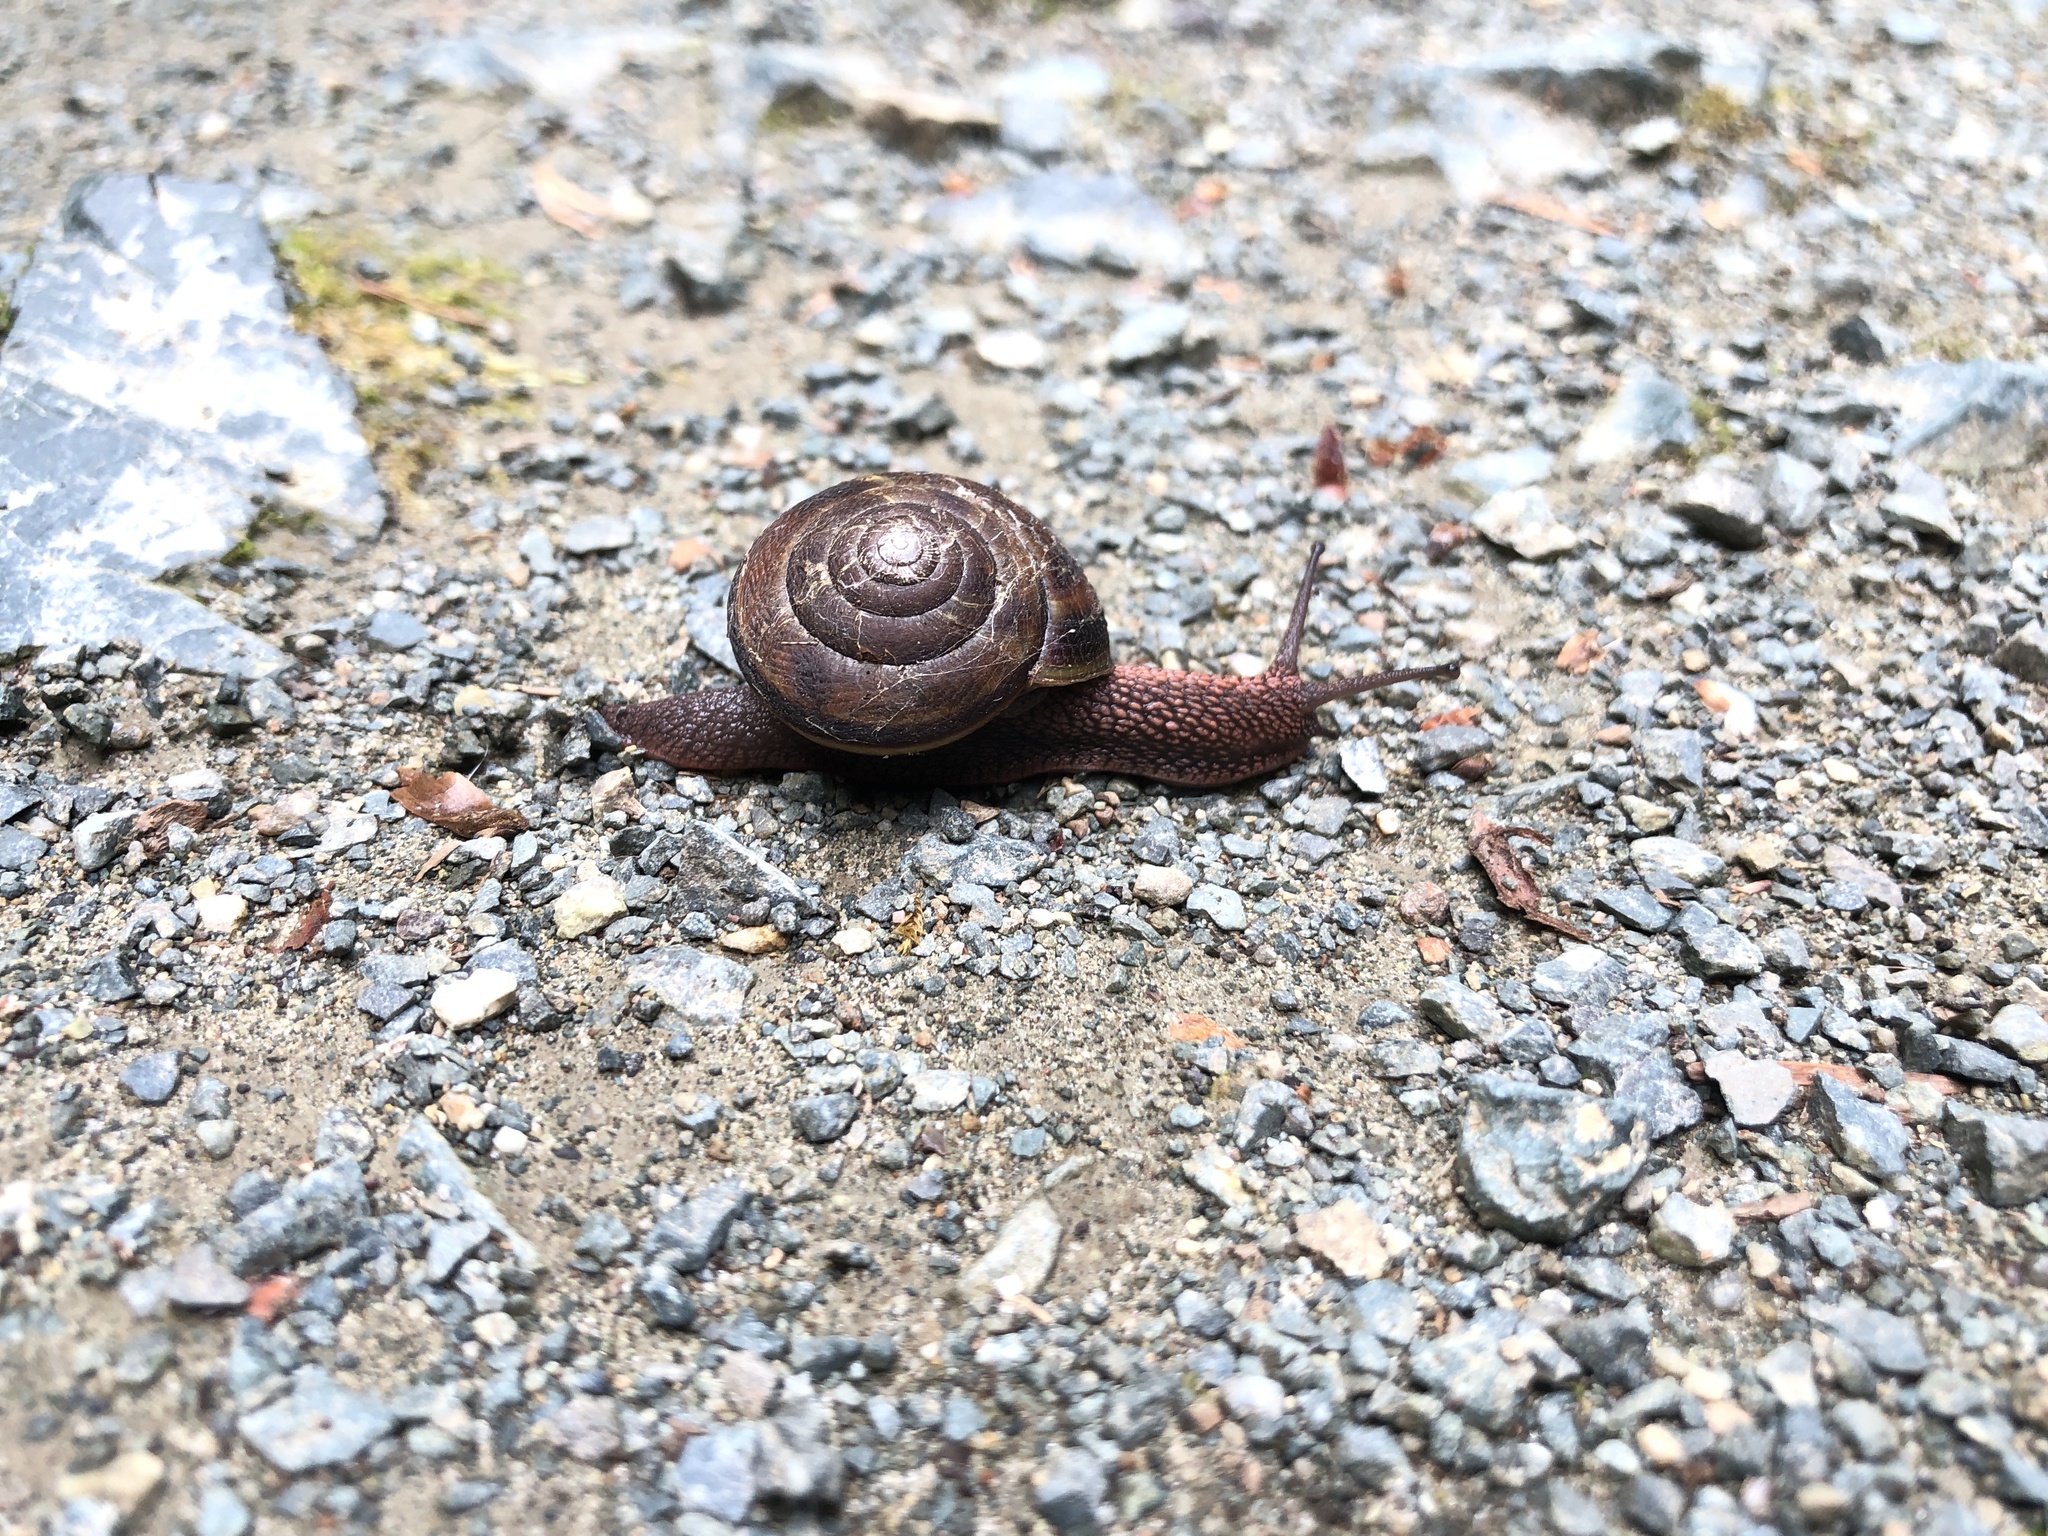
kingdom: Animalia
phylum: Mollusca
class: Gastropoda
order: Stylommatophora
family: Xanthonychidae
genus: Monadenia
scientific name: Monadenia fidelis
